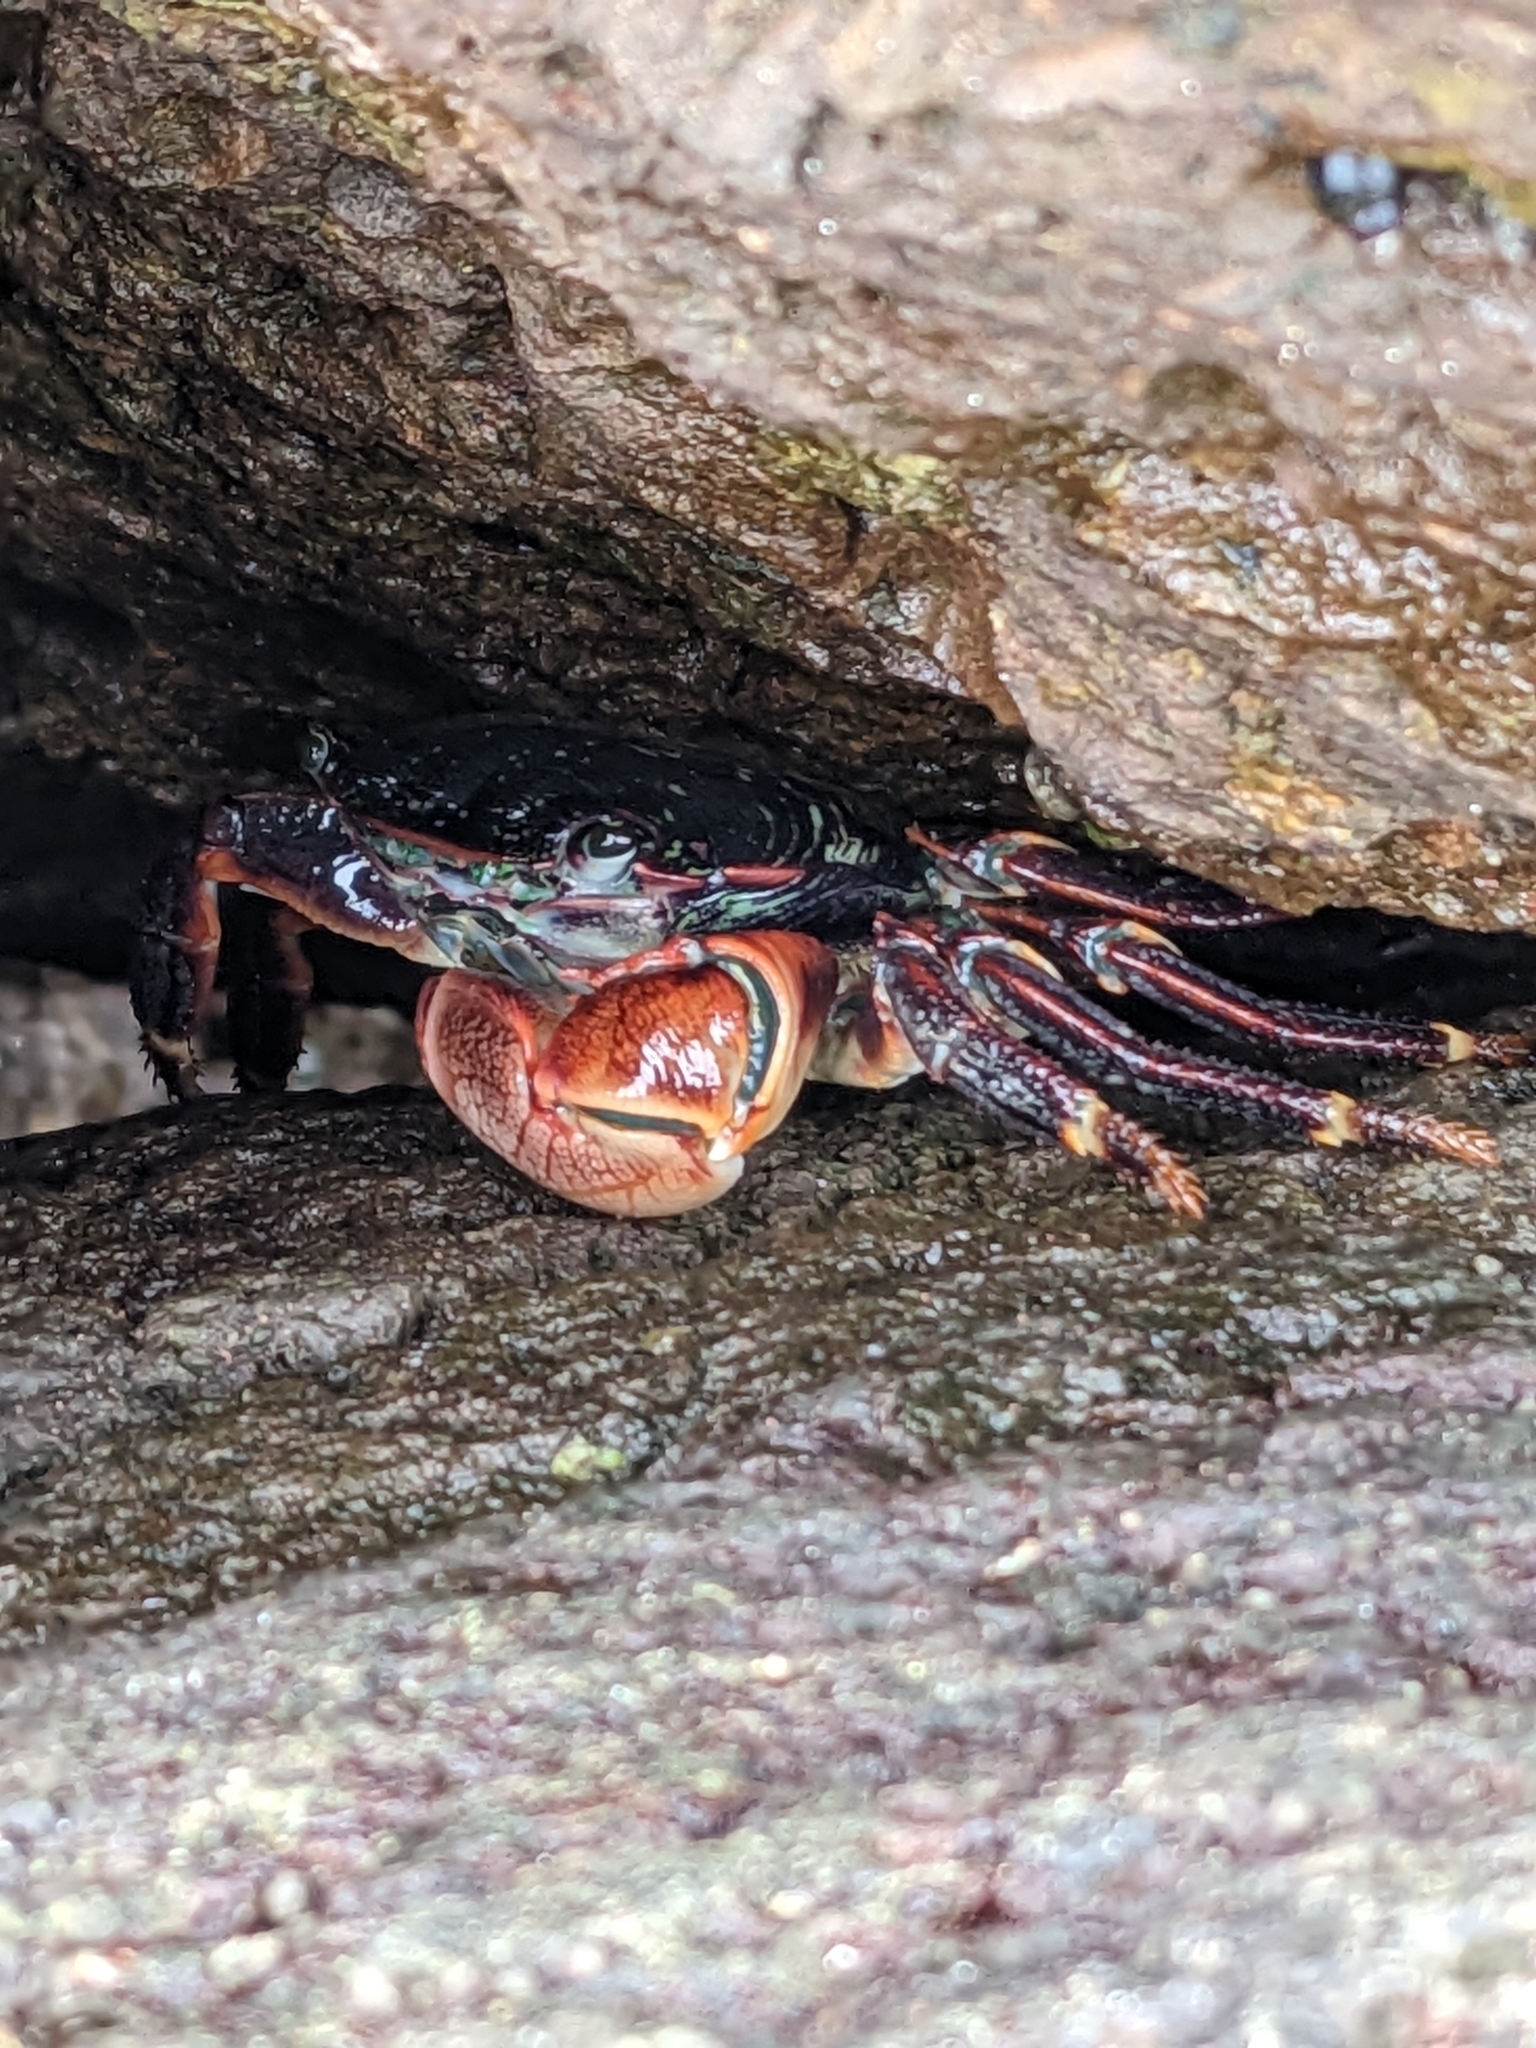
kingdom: Animalia
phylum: Arthropoda
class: Malacostraca
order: Decapoda
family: Grapsidae
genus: Pachygrapsus
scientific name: Pachygrapsus crassipes
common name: Striped shore crab
